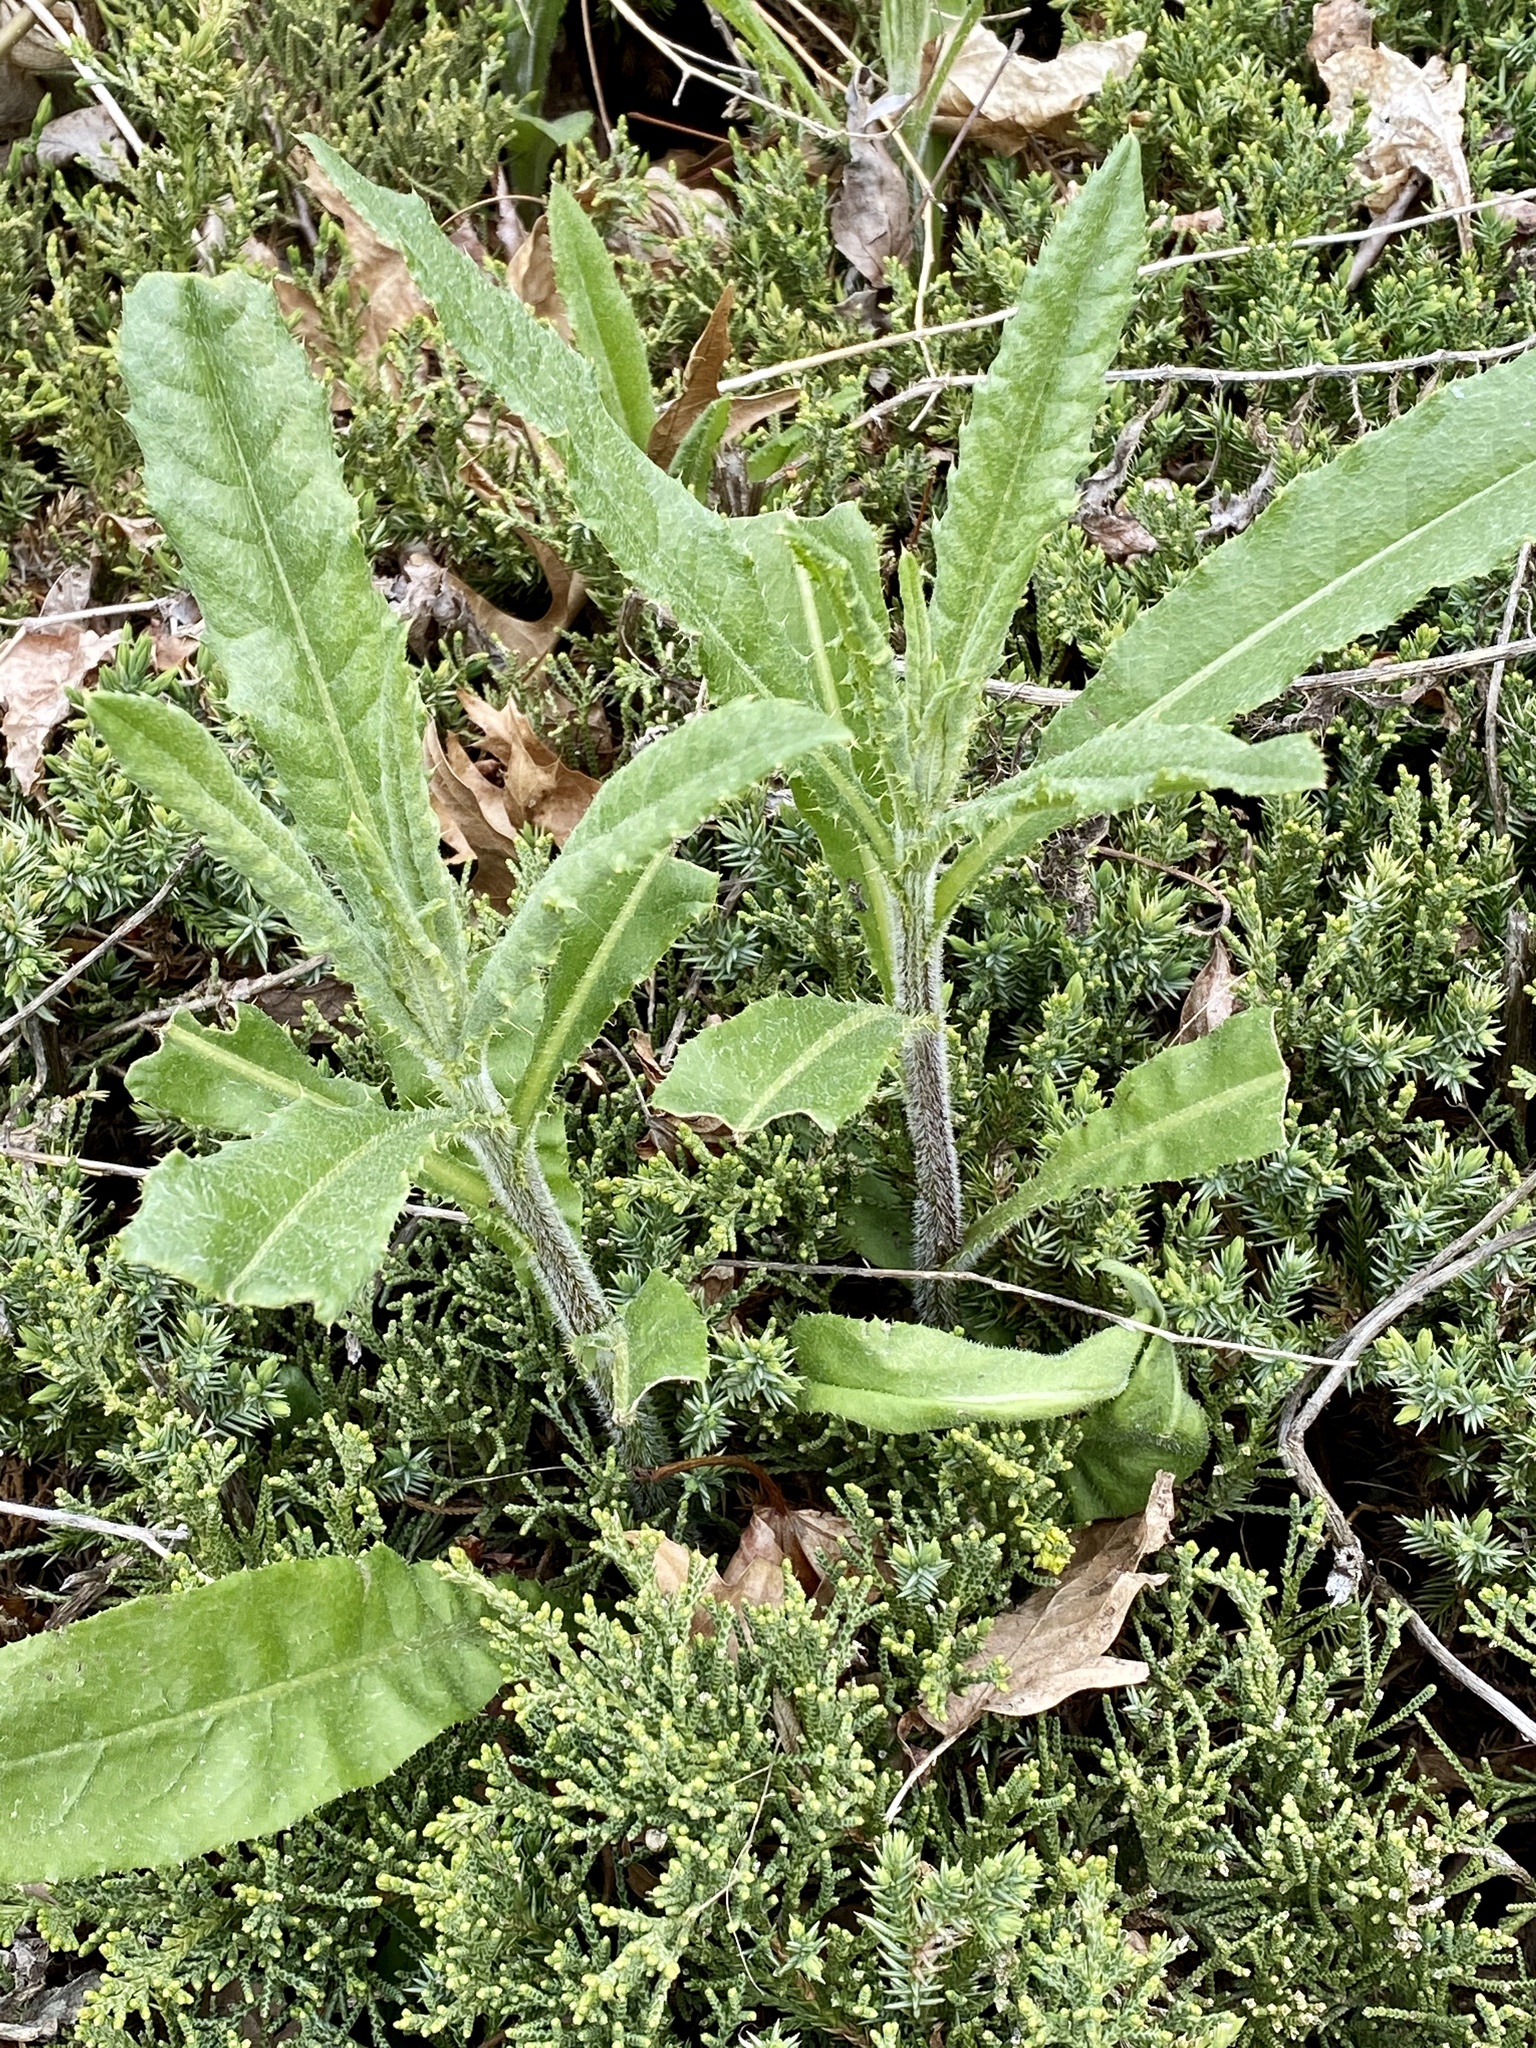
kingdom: Plantae
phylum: Tracheophyta
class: Magnoliopsida
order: Asterales
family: Asteraceae
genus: Cirsium
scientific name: Cirsium arvense
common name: Creeping thistle
